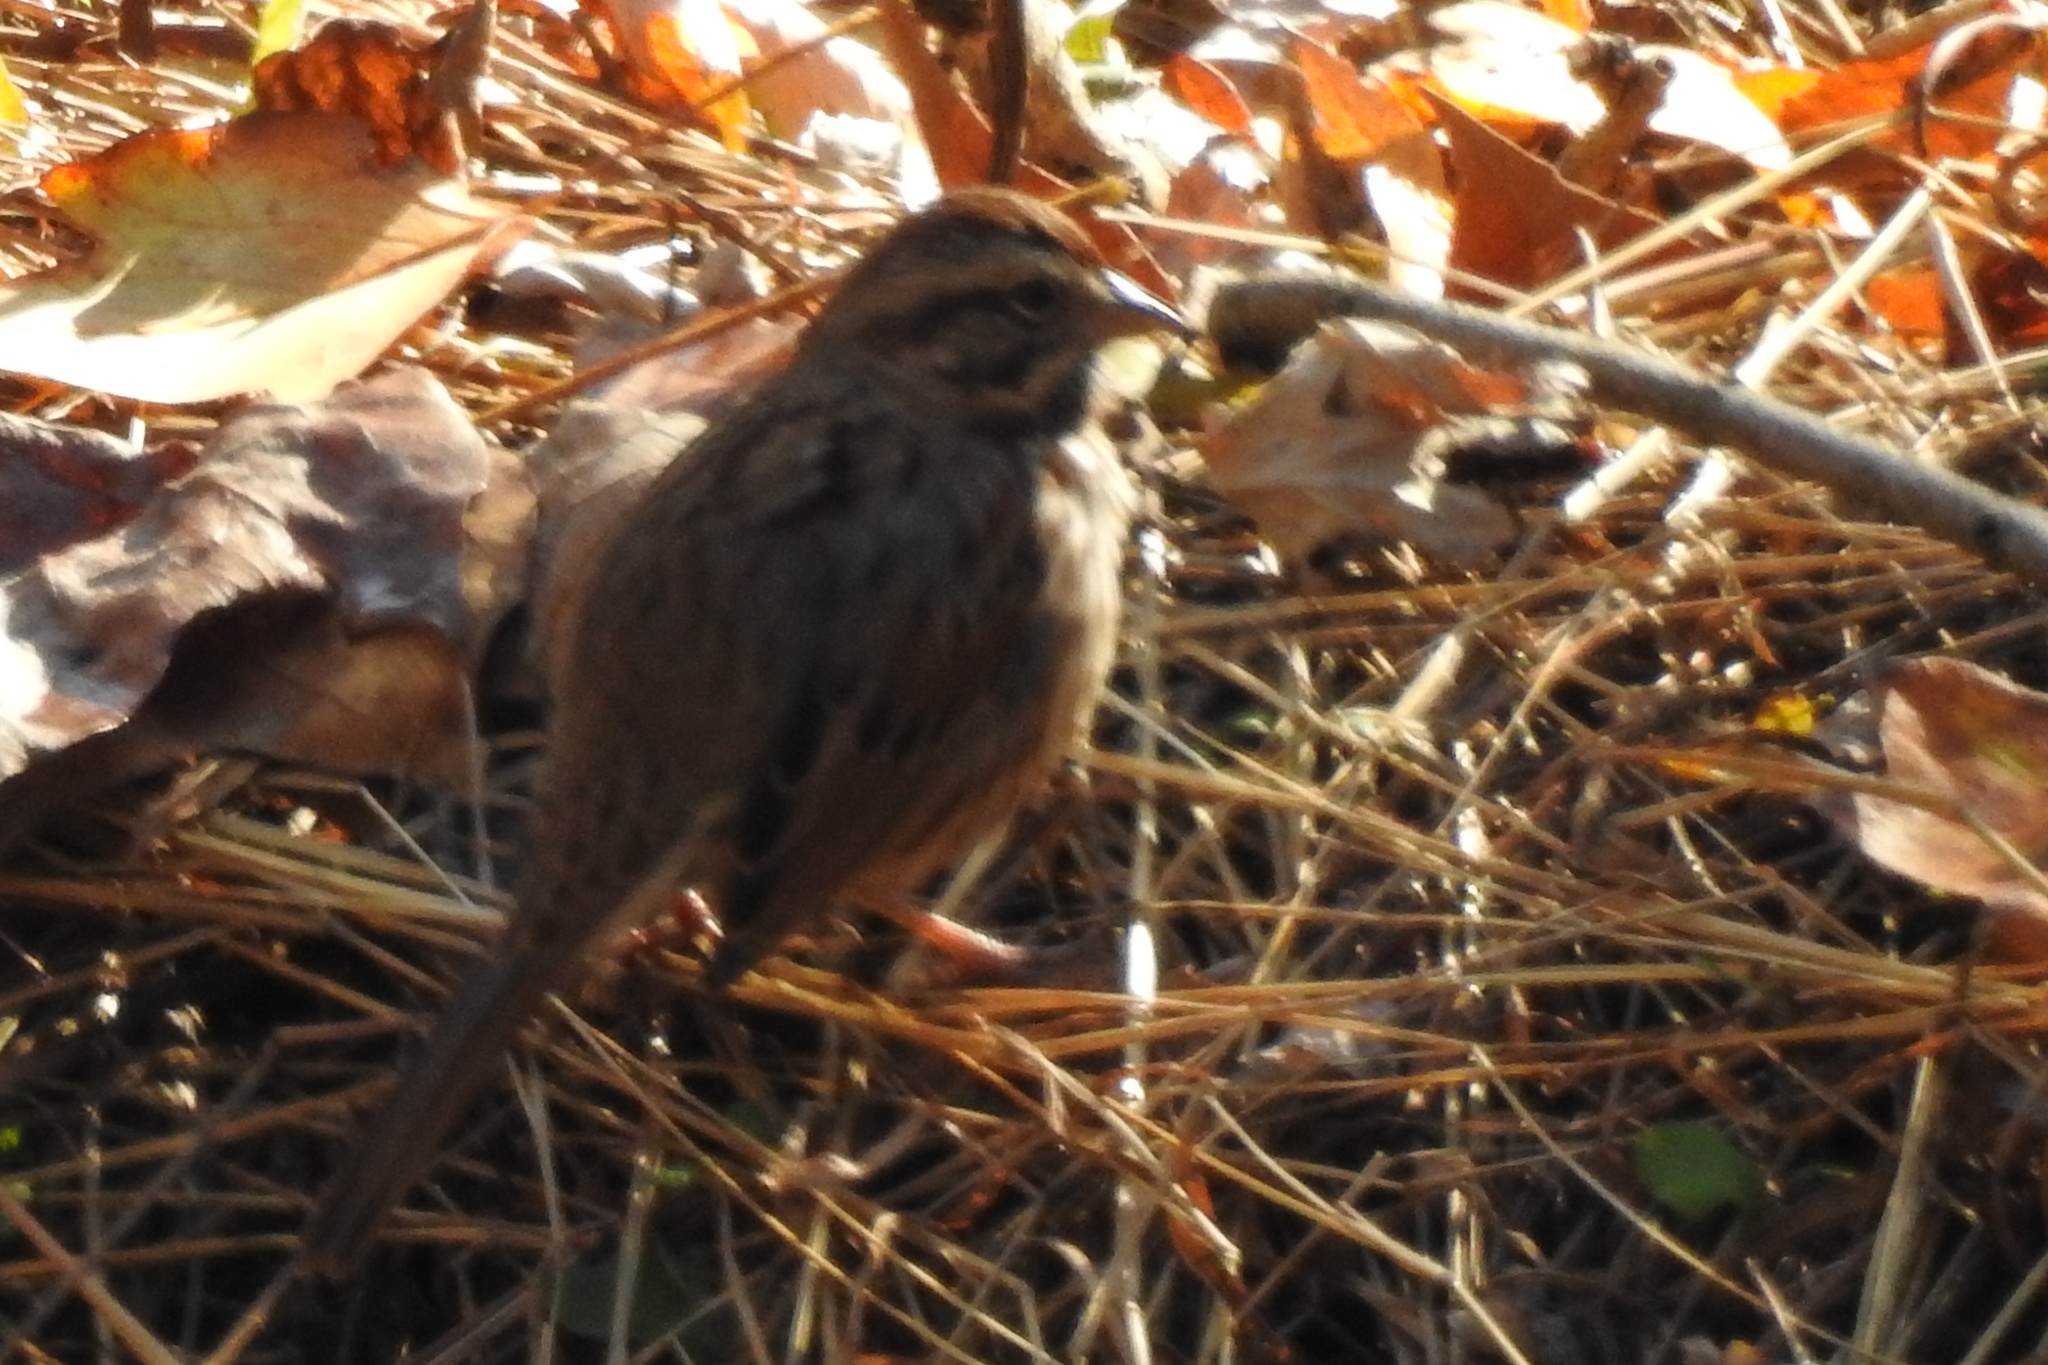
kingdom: Animalia
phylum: Chordata
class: Aves
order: Passeriformes
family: Passerellidae
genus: Melospiza
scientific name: Melospiza melodia
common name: Song sparrow
